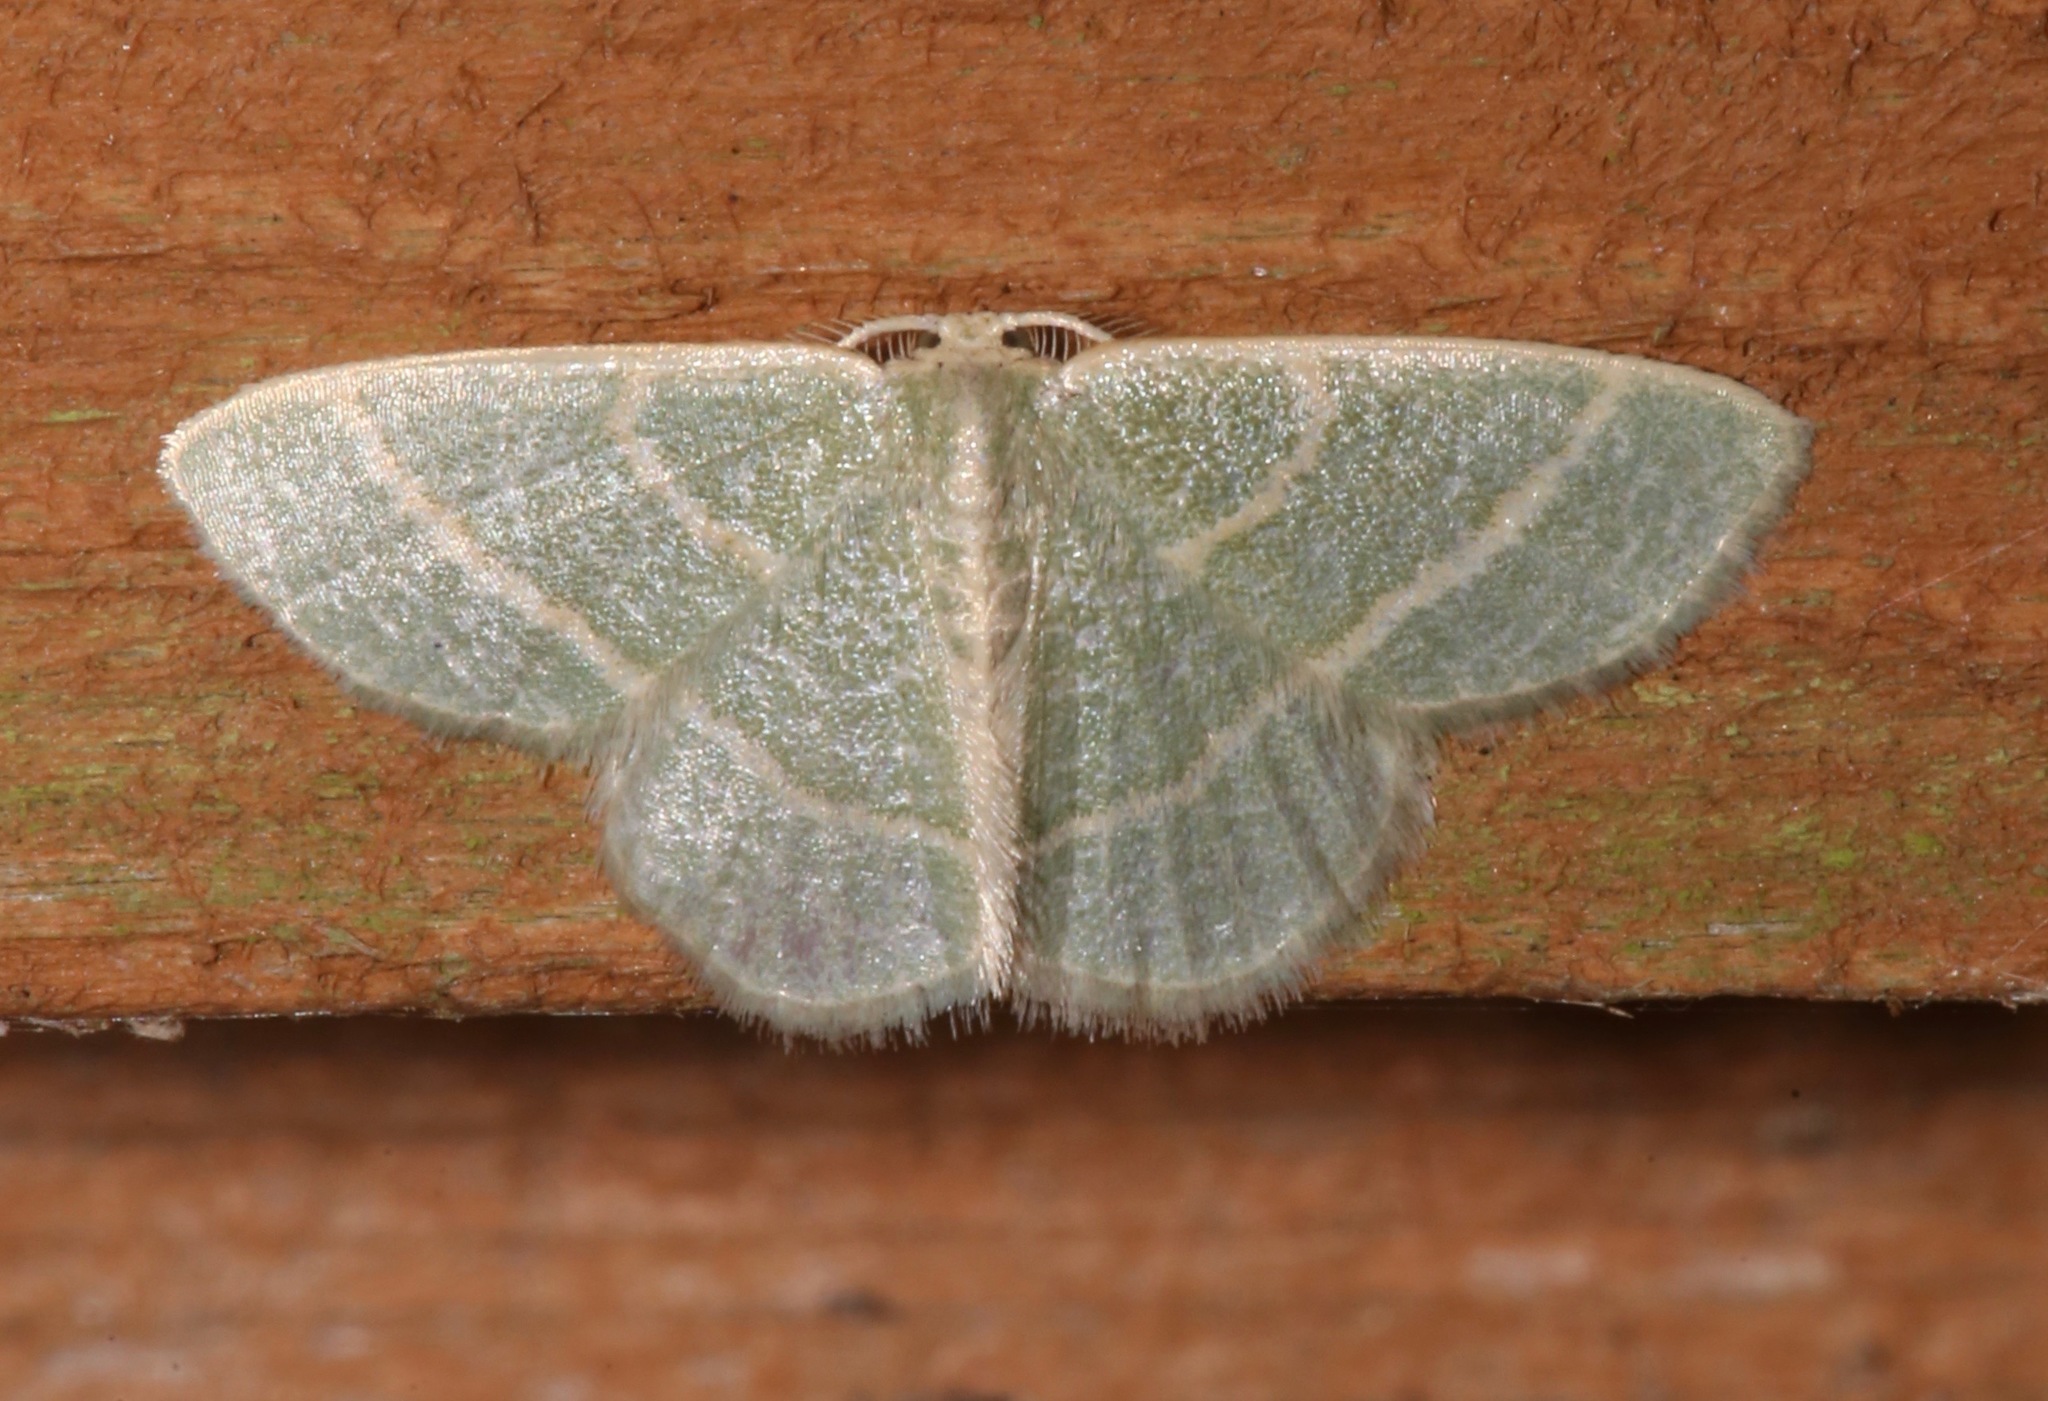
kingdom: Animalia
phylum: Arthropoda
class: Insecta
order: Lepidoptera
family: Geometridae
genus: Chlorochlamys
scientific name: Chlorochlamys chloroleucaria
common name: Blackberry looper
